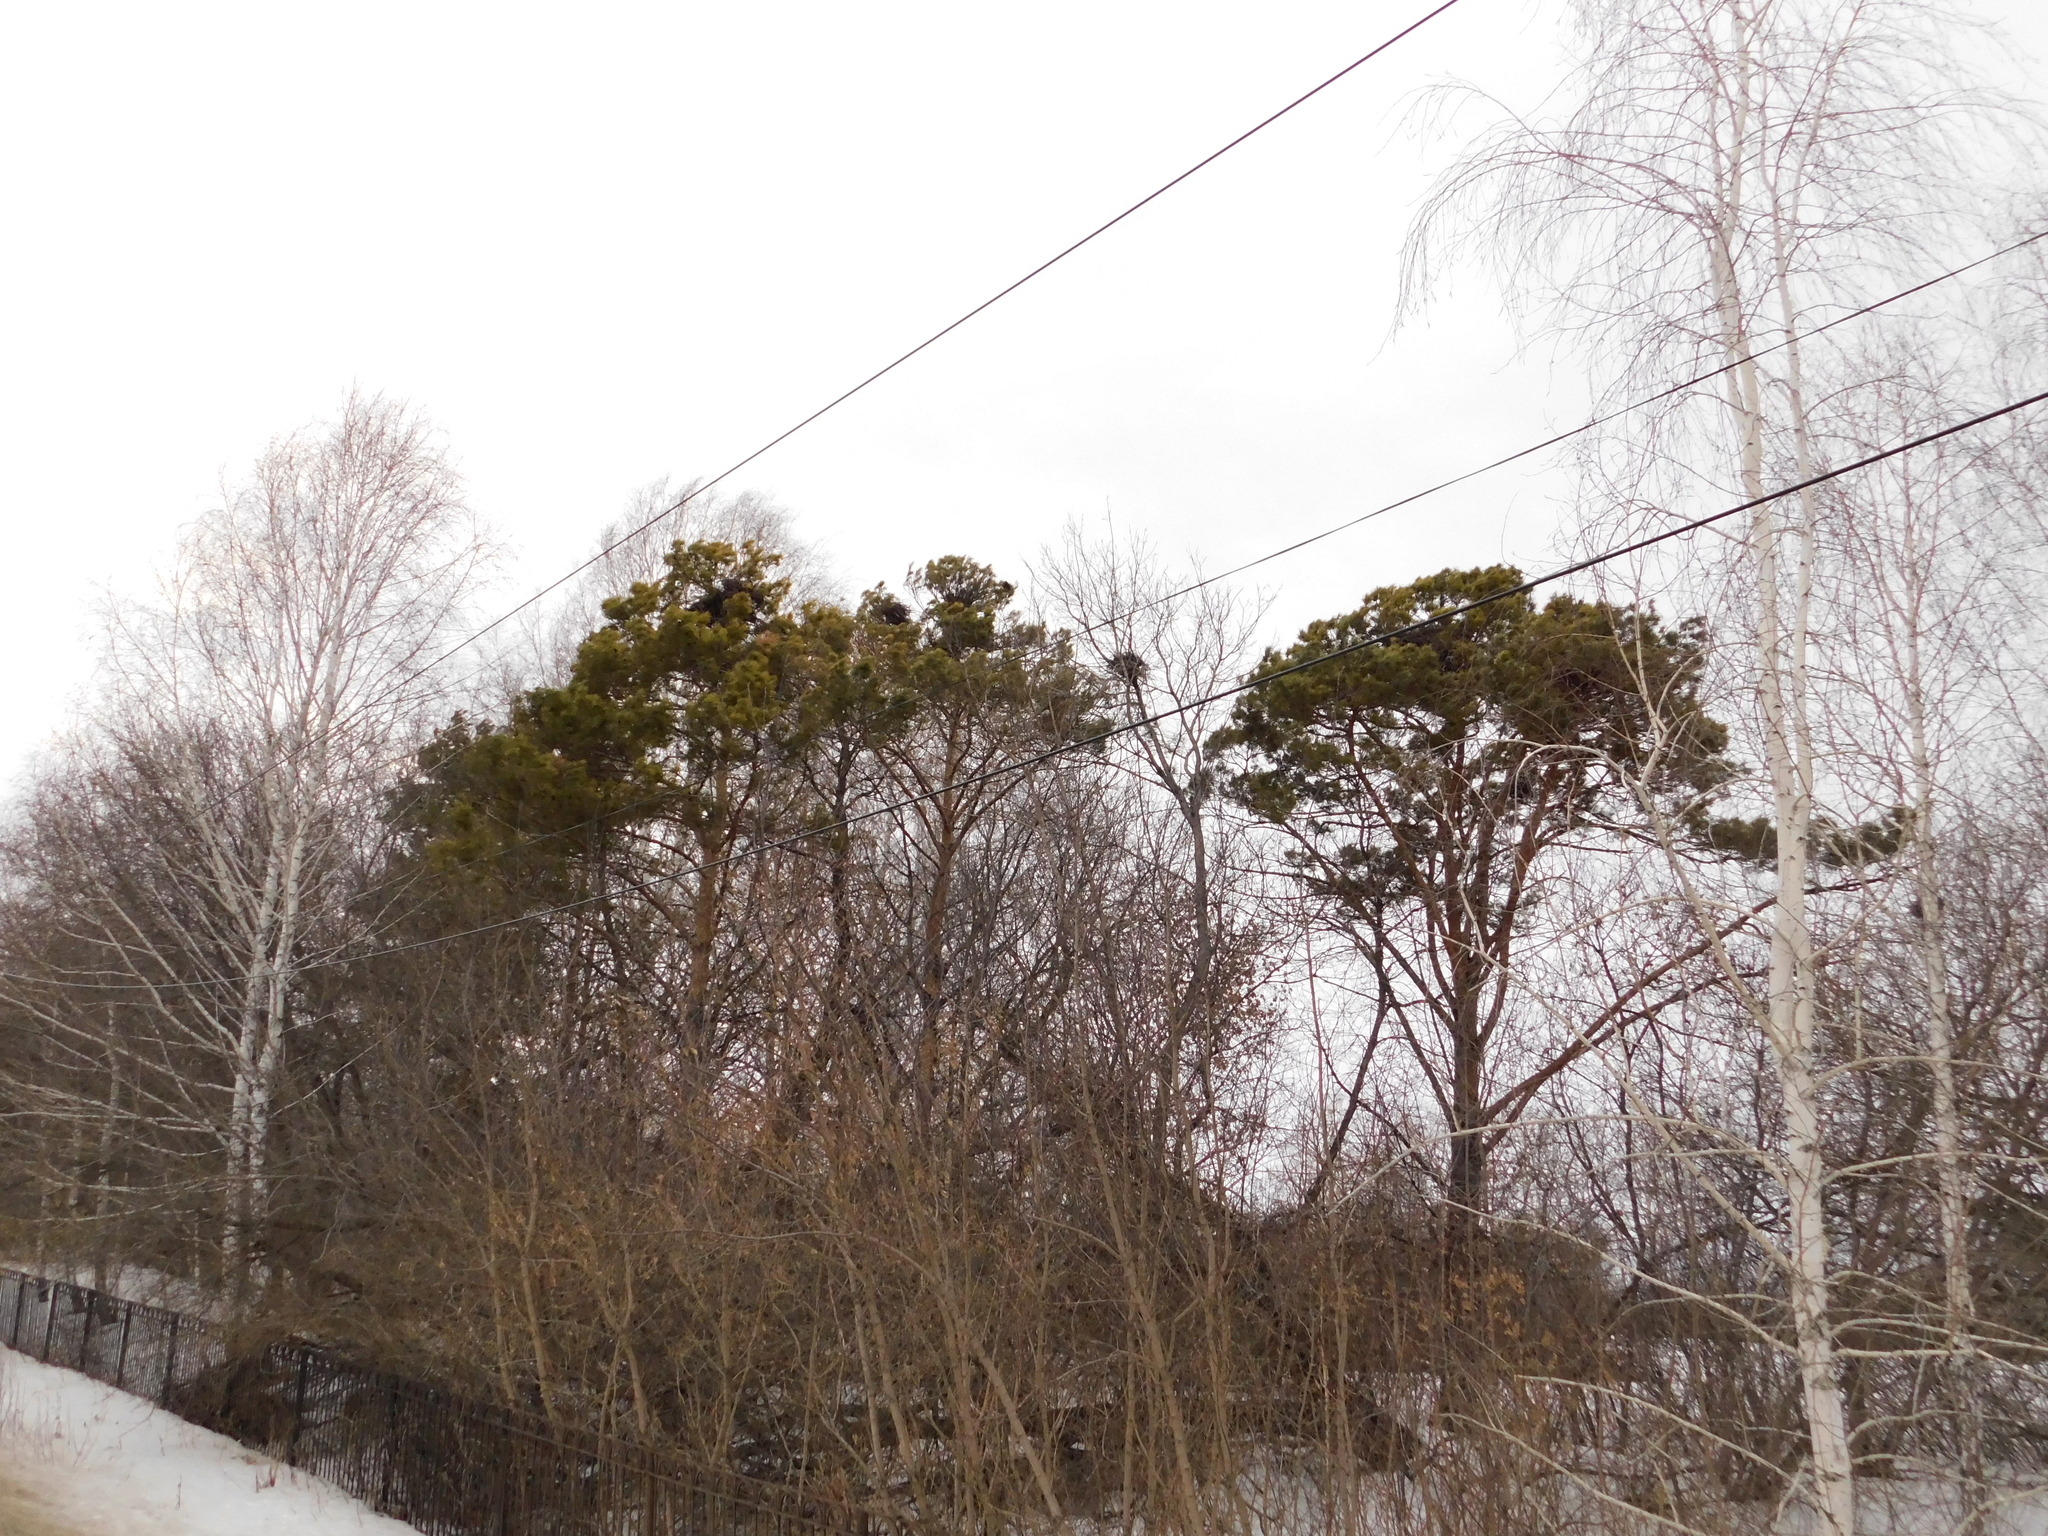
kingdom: Animalia
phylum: Chordata
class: Aves
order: Passeriformes
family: Corvidae
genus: Corvus
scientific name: Corvus frugilegus
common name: Rook
